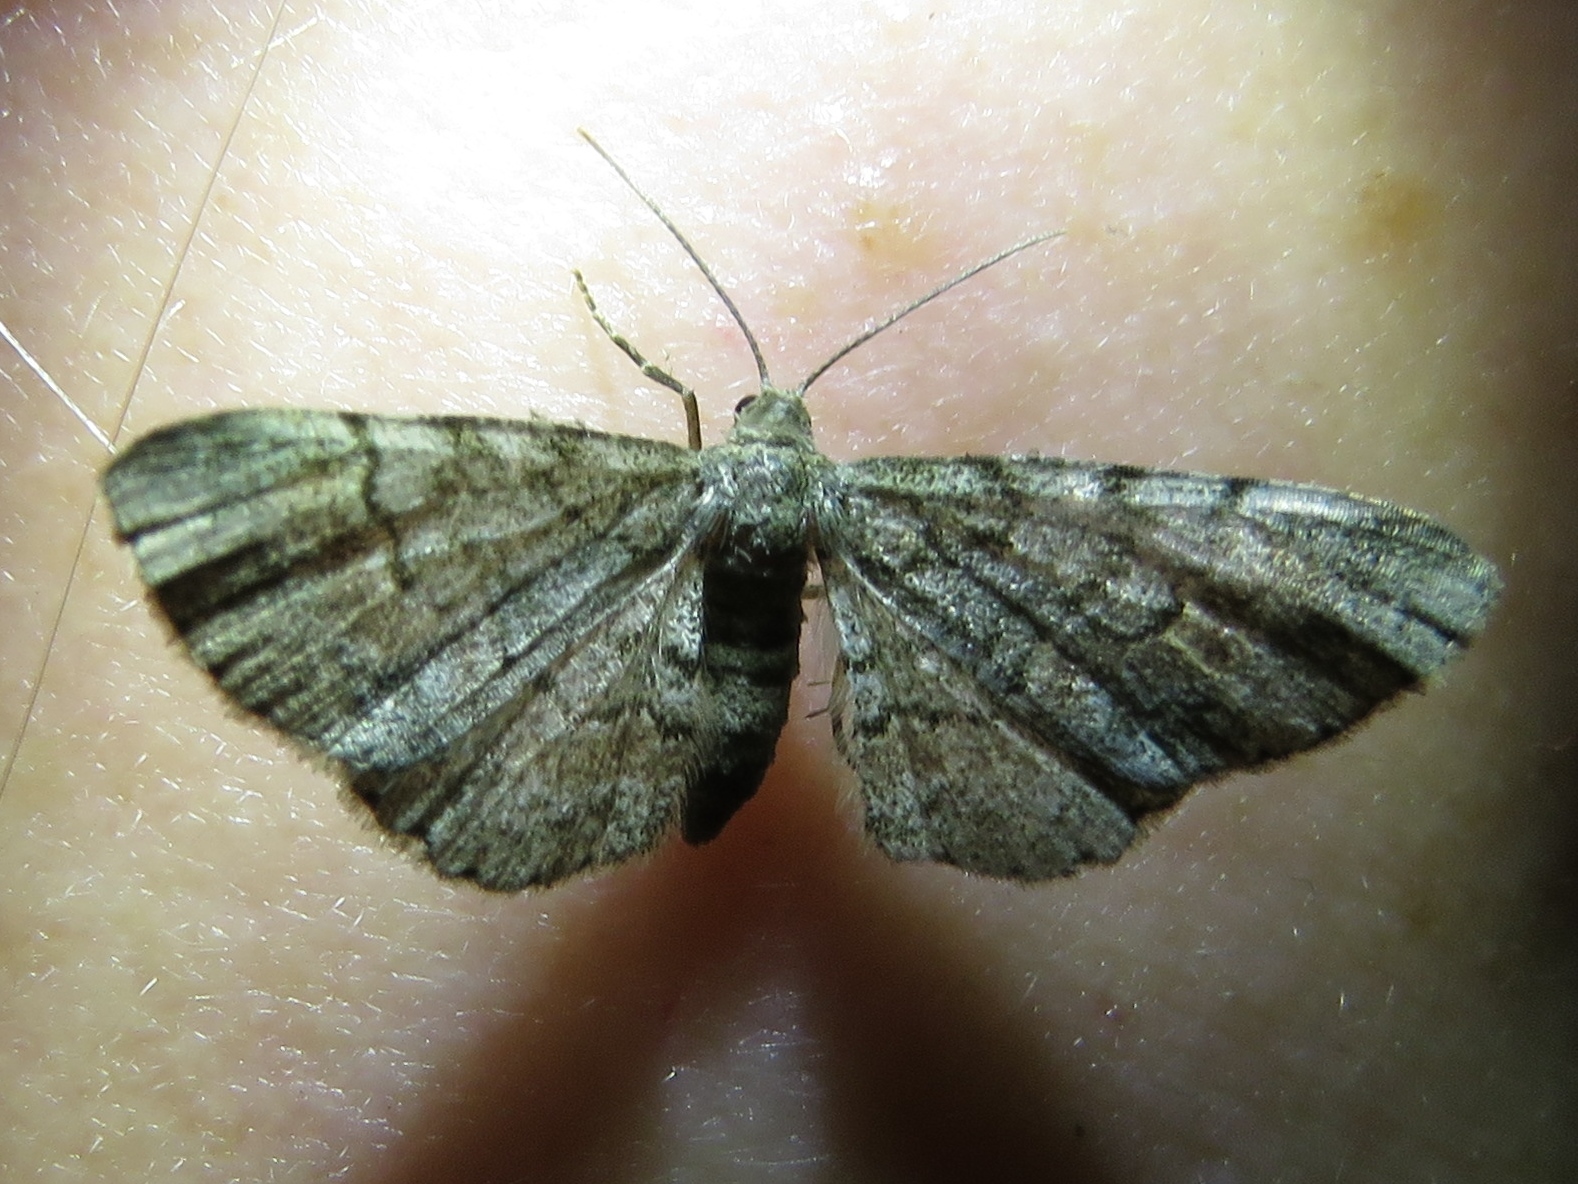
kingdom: Animalia
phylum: Arthropoda
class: Insecta
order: Lepidoptera
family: Geometridae
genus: Glenoides
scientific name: Glenoides texanaria
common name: Texas gray
